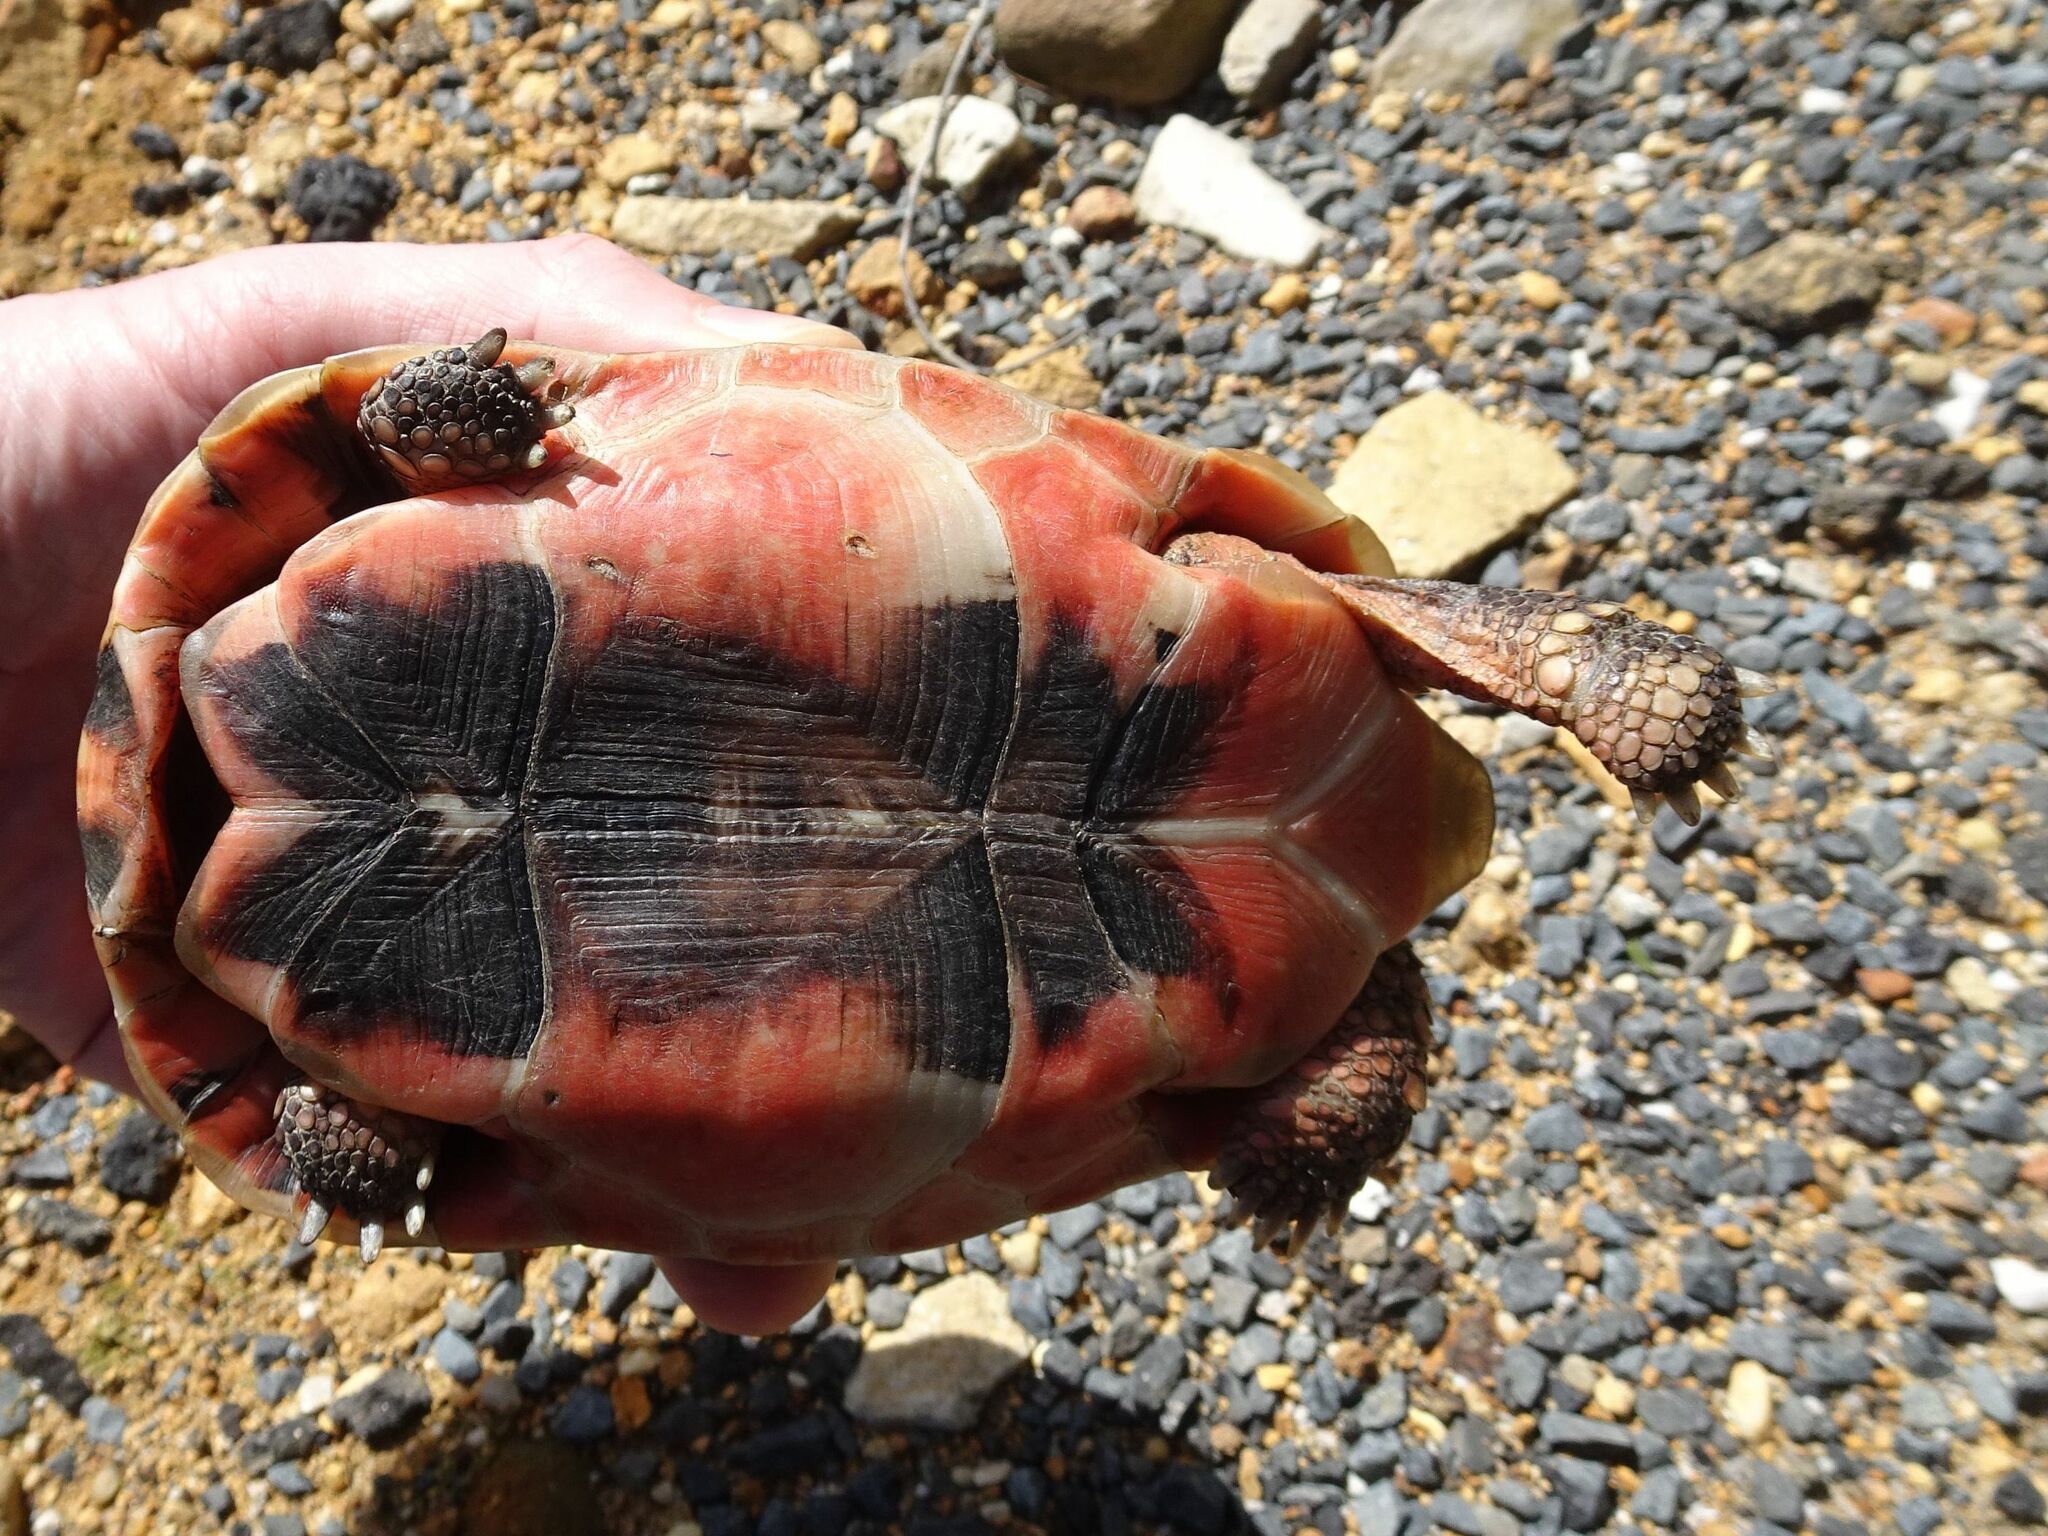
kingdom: Animalia
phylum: Chordata
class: Testudines
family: Testudinidae
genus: Chersina
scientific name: Chersina angulata
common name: South african bowsprit tortoise
